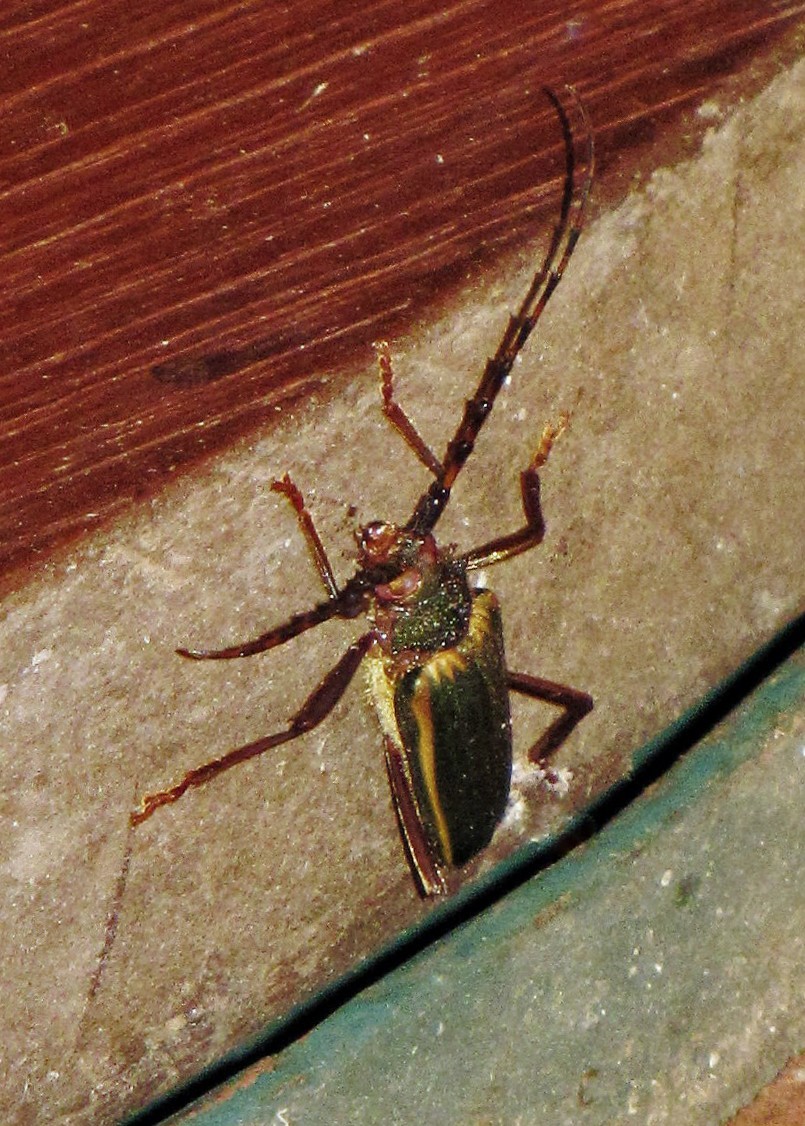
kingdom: Animalia
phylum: Arthropoda
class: Insecta
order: Coleoptera
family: Cerambycidae
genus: Chlorida
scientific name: Chlorida costata
